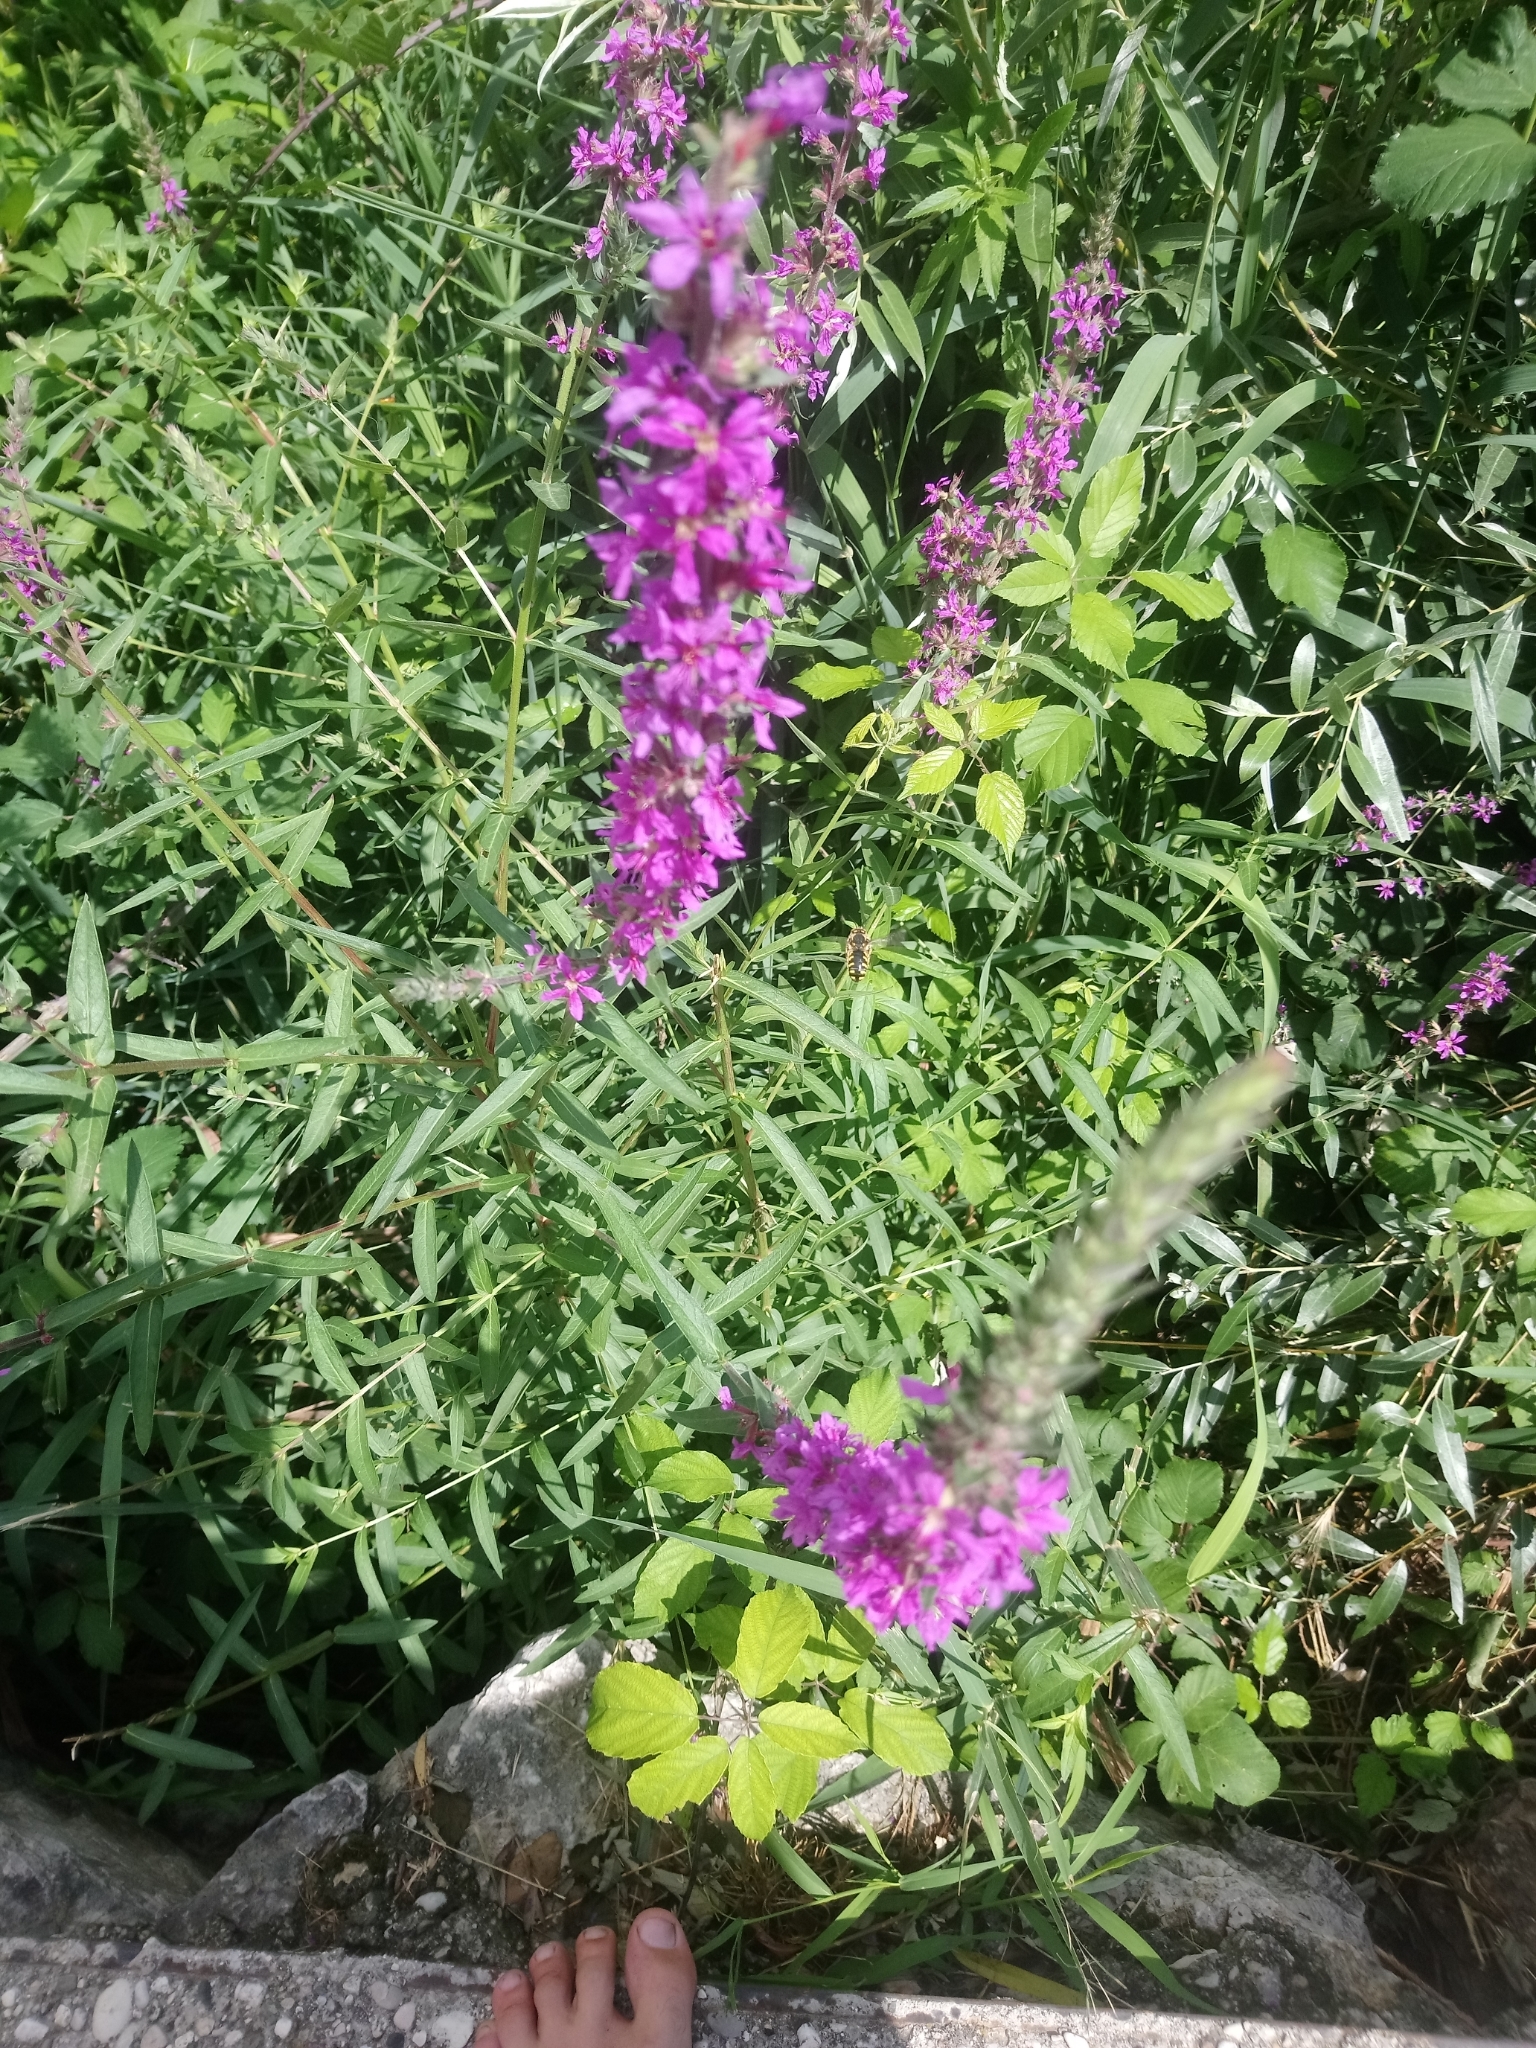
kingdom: Plantae
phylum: Tracheophyta
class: Magnoliopsida
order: Myrtales
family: Lythraceae
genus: Lythrum
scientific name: Lythrum salicaria
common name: Purple loosestrife
